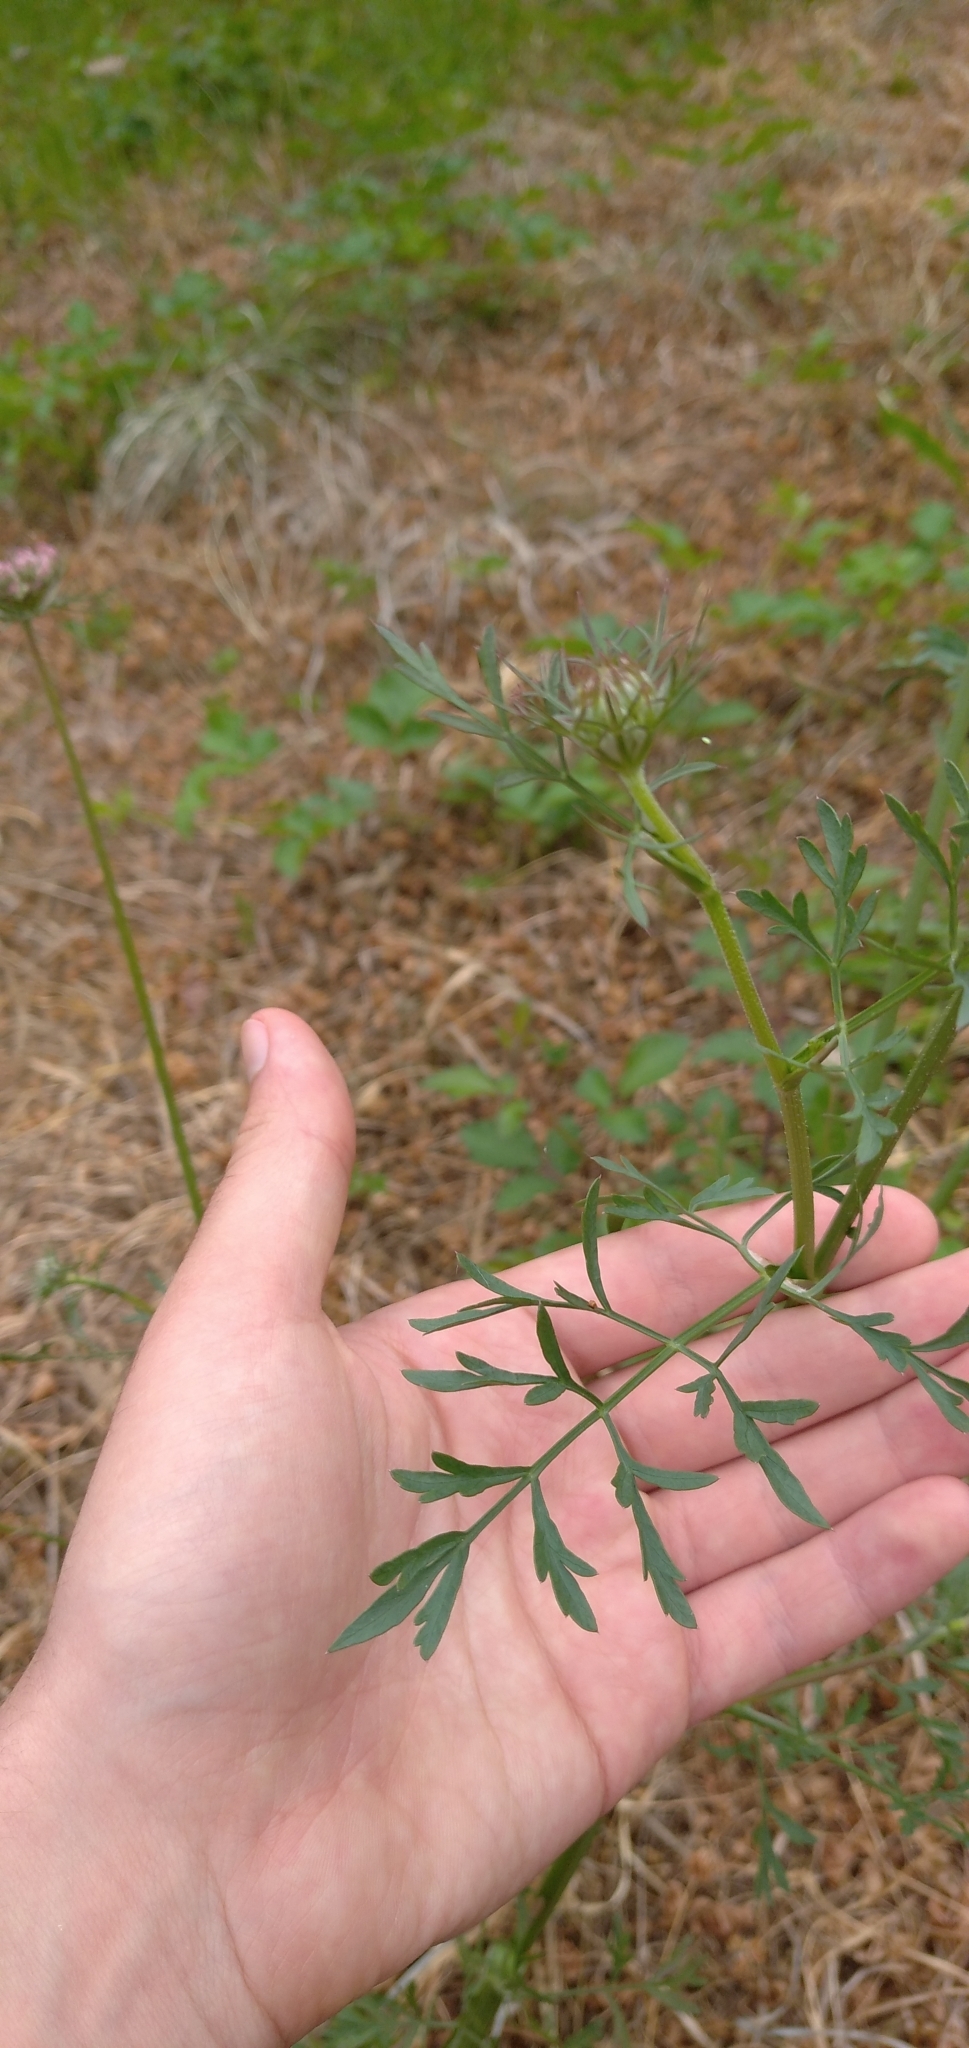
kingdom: Plantae
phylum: Tracheophyta
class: Magnoliopsida
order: Apiales
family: Apiaceae
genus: Daucus
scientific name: Daucus carota
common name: Wild carrot
